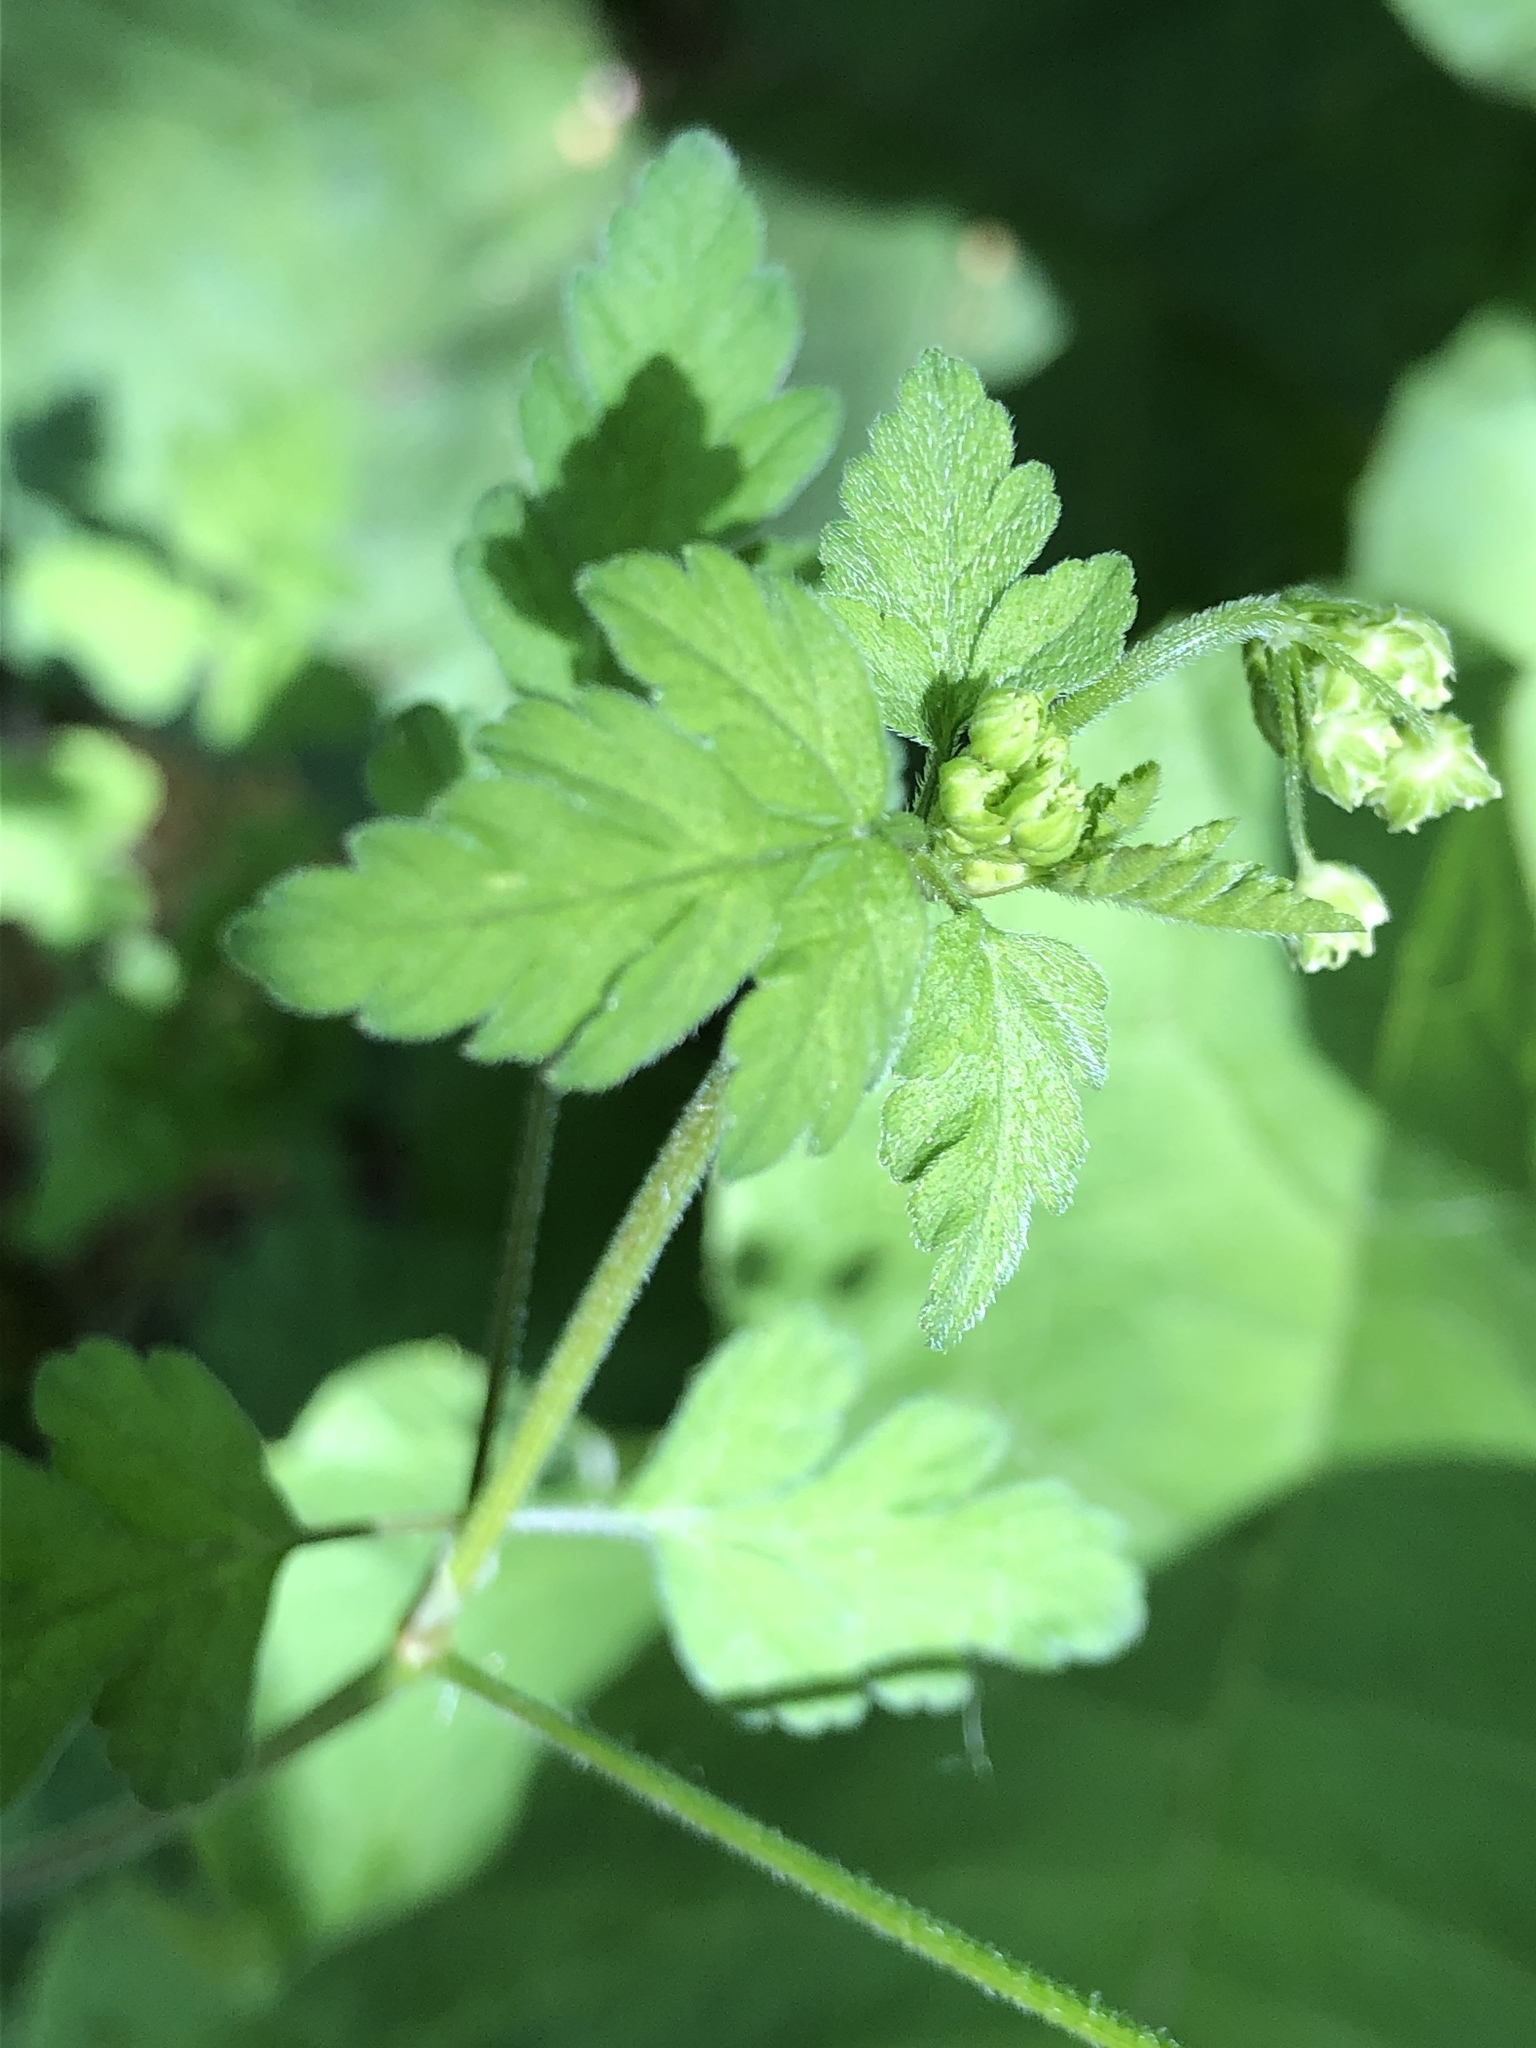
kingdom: Plantae
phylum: Tracheophyta
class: Magnoliopsida
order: Apiales
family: Apiaceae
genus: Chaerophyllum
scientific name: Chaerophyllum temulum
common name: Rough chervil
